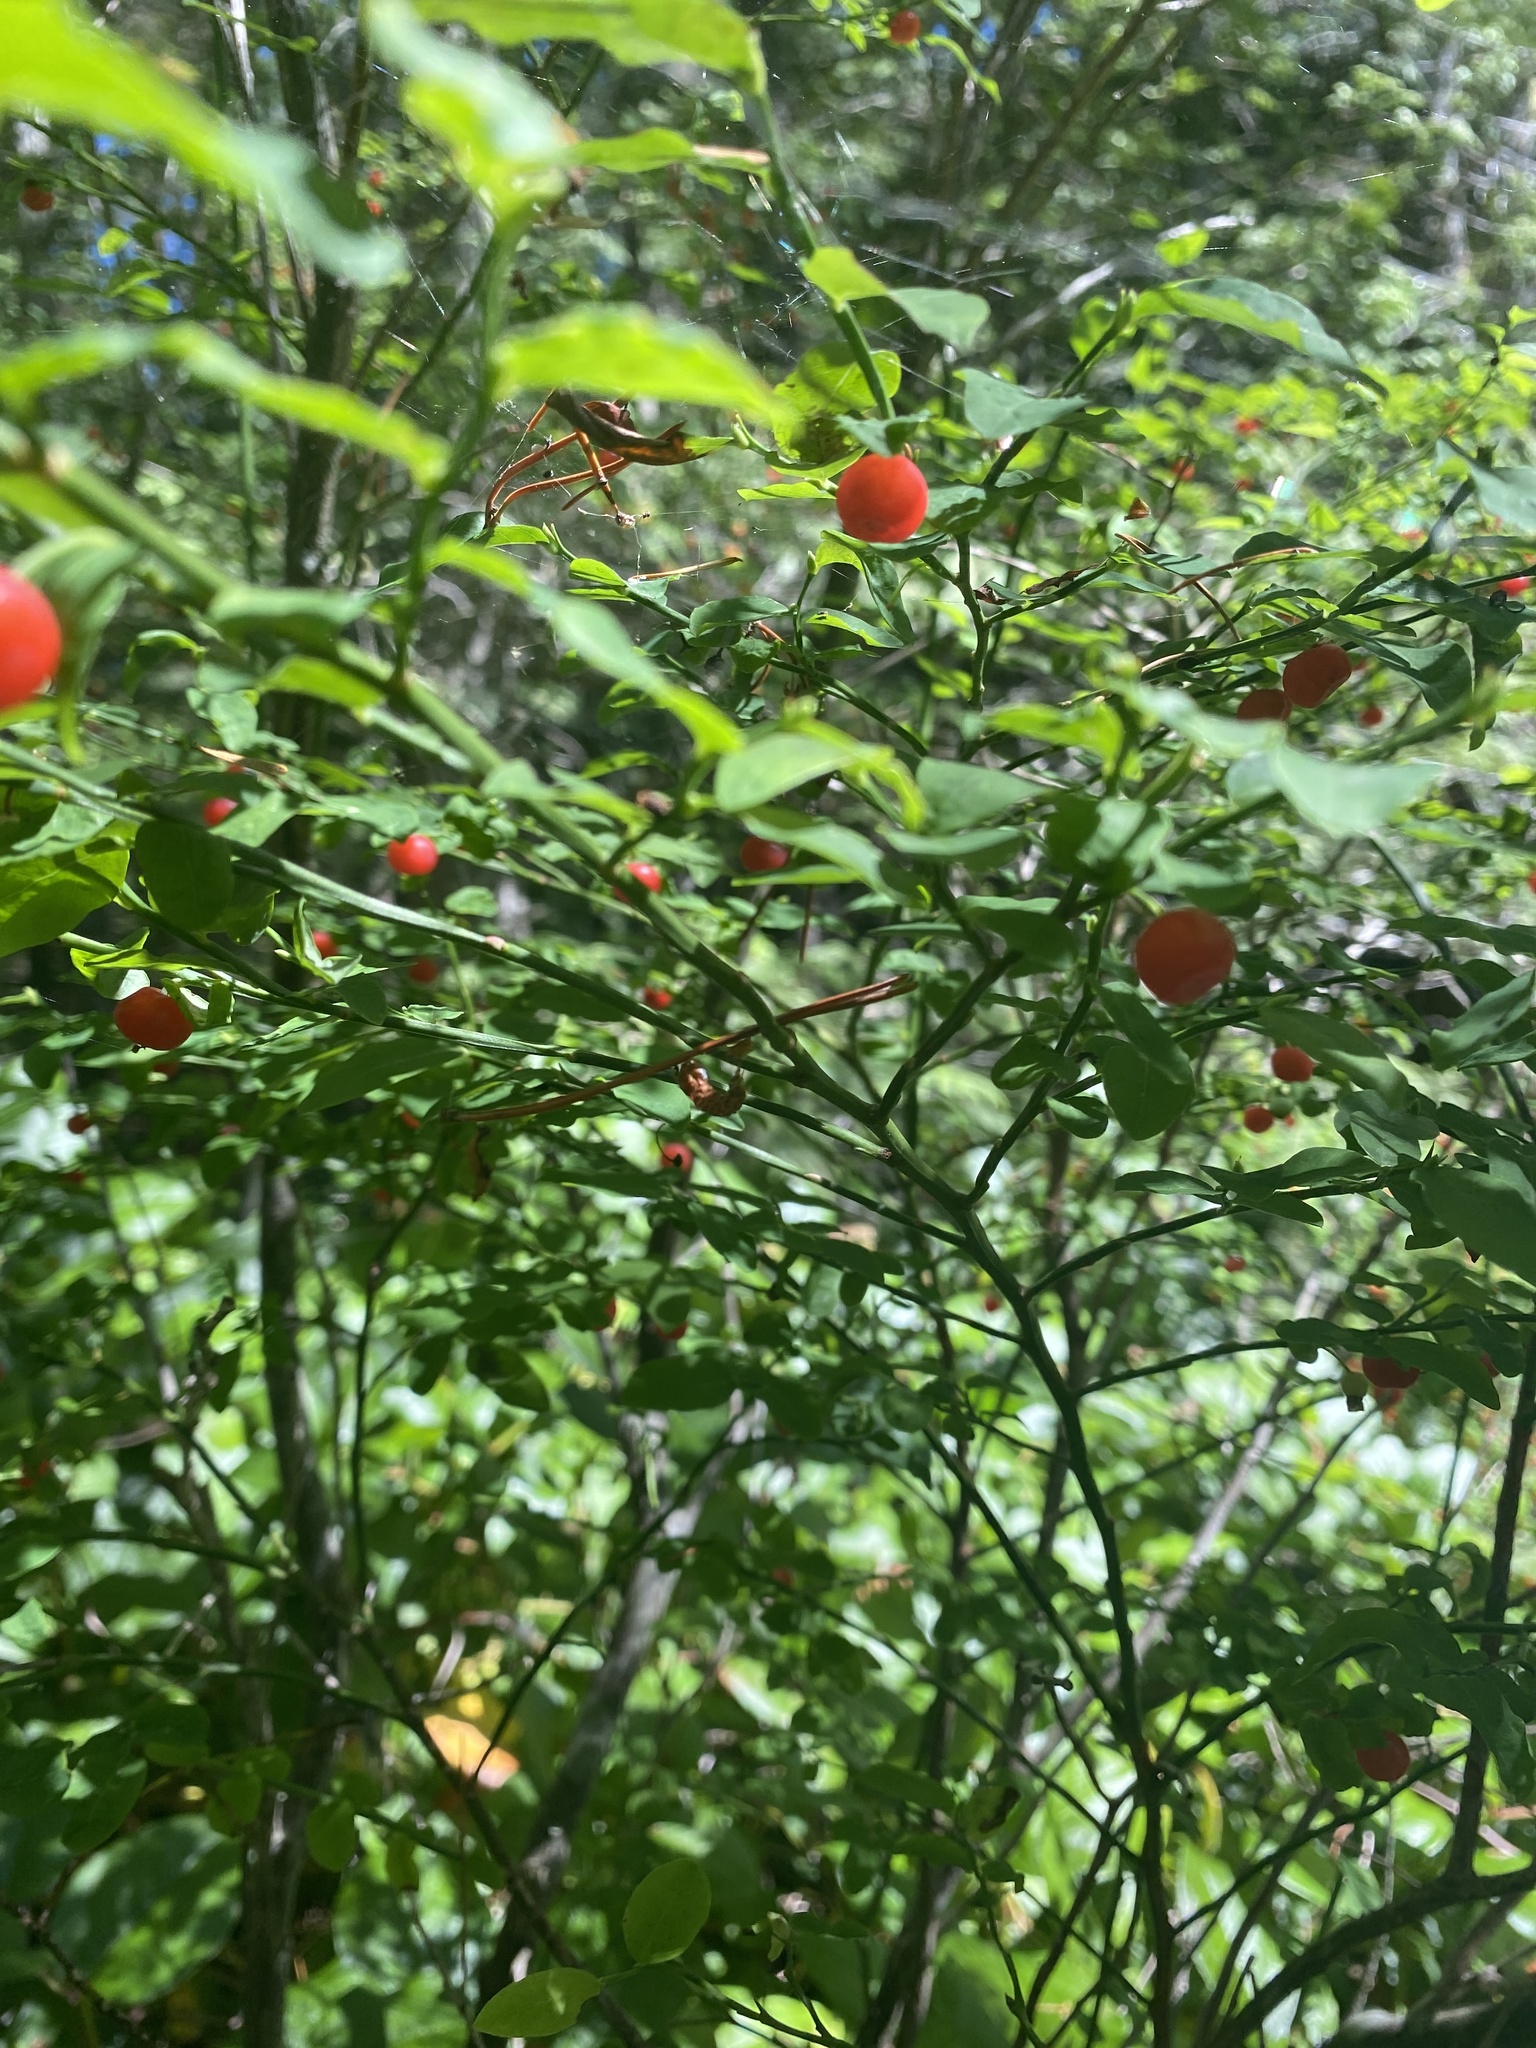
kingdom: Plantae
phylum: Tracheophyta
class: Magnoliopsida
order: Ericales
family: Ericaceae
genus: Vaccinium
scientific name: Vaccinium parvifolium
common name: Red-huckleberry
